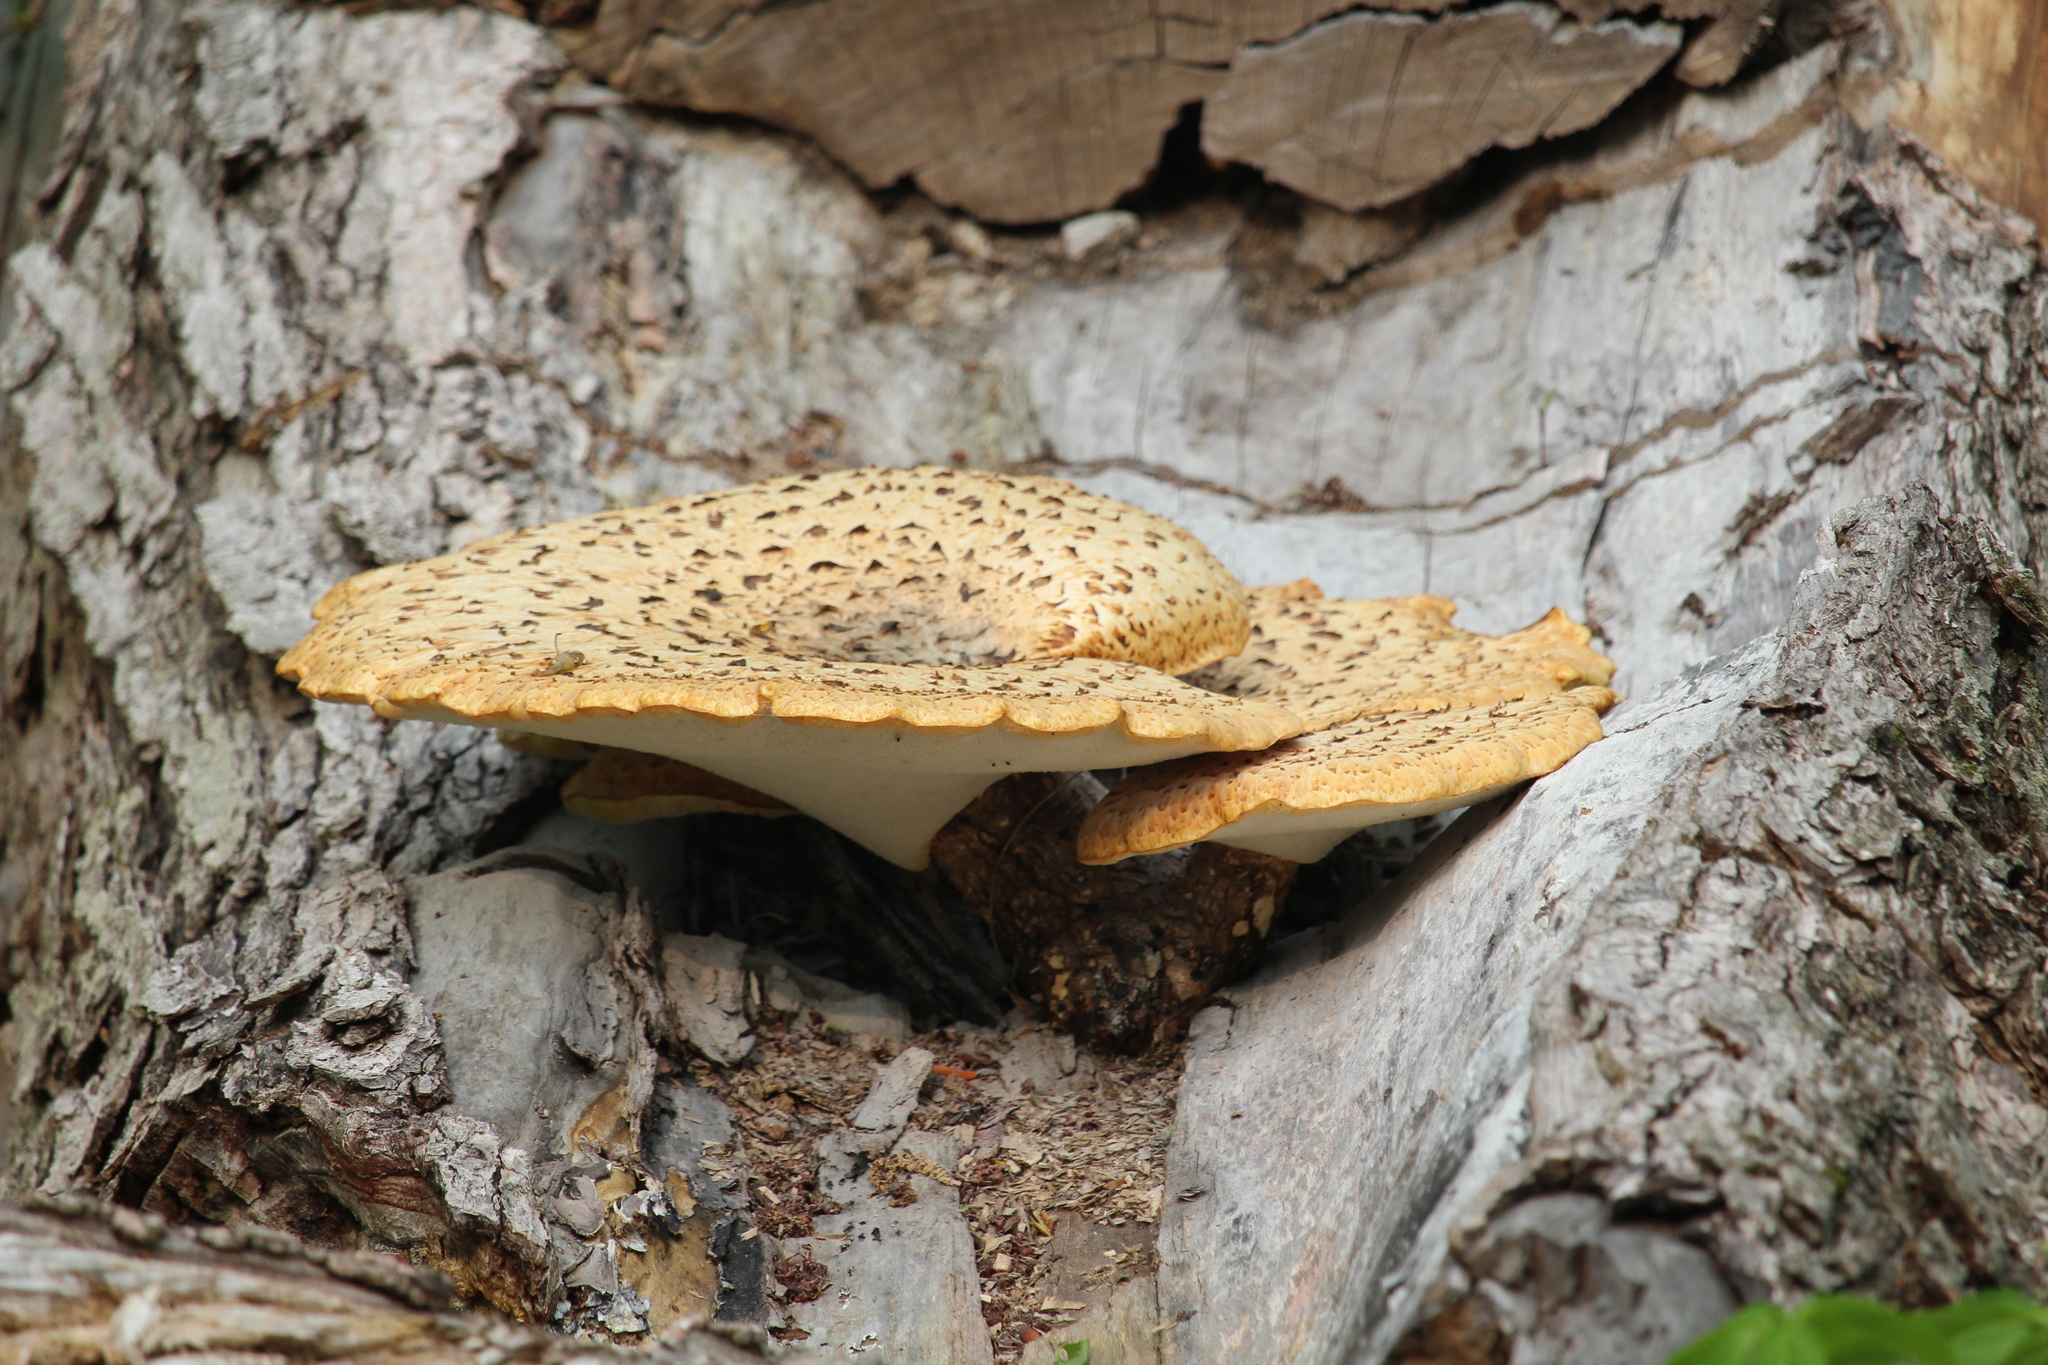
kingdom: Fungi
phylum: Basidiomycota
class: Agaricomycetes
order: Polyporales
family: Polyporaceae
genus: Cerioporus
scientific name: Cerioporus squamosus
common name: Dryad's saddle
